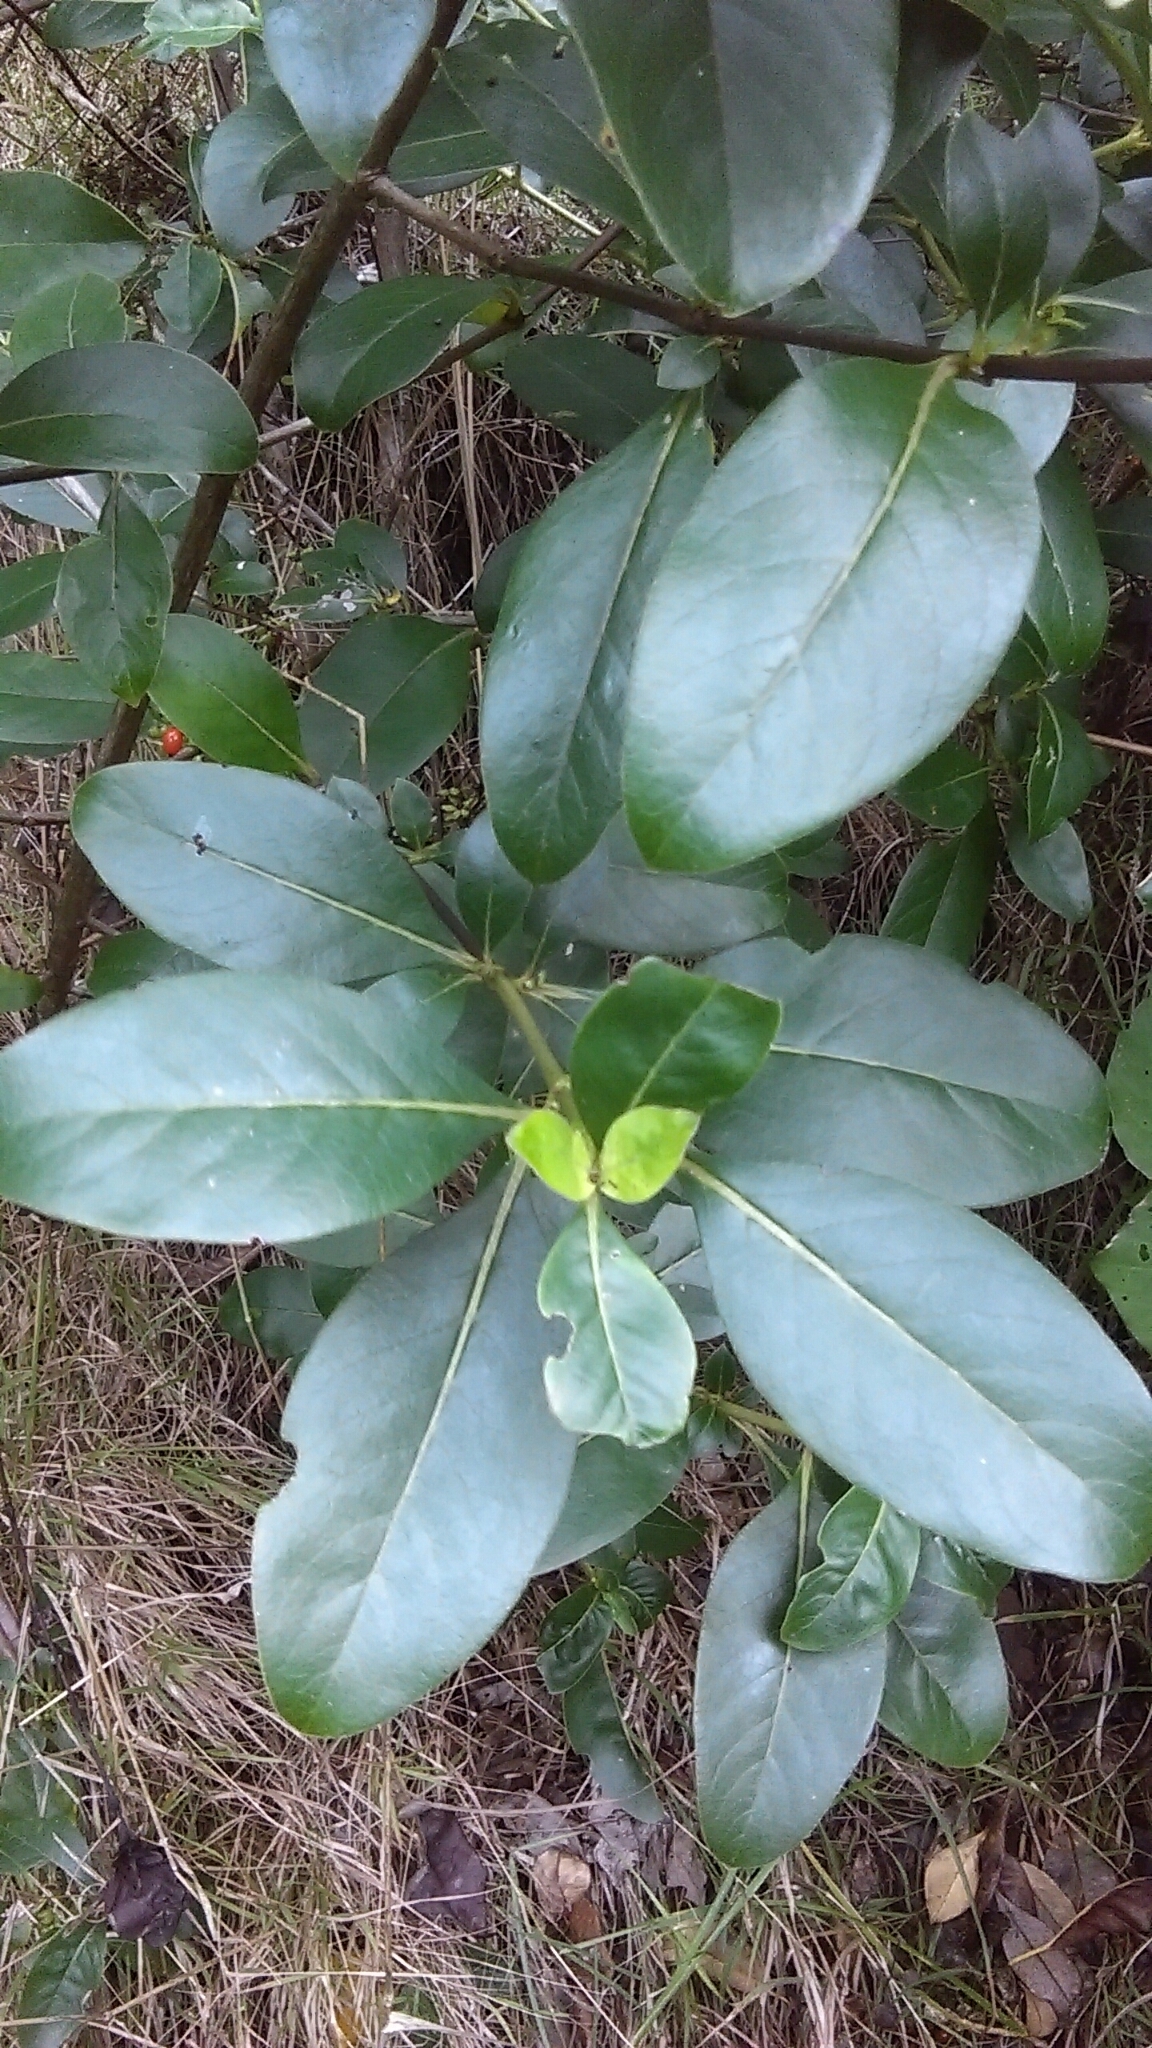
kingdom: Plantae
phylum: Tracheophyta
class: Magnoliopsida
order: Gentianales
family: Rubiaceae
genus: Coprosma
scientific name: Coprosma robusta
